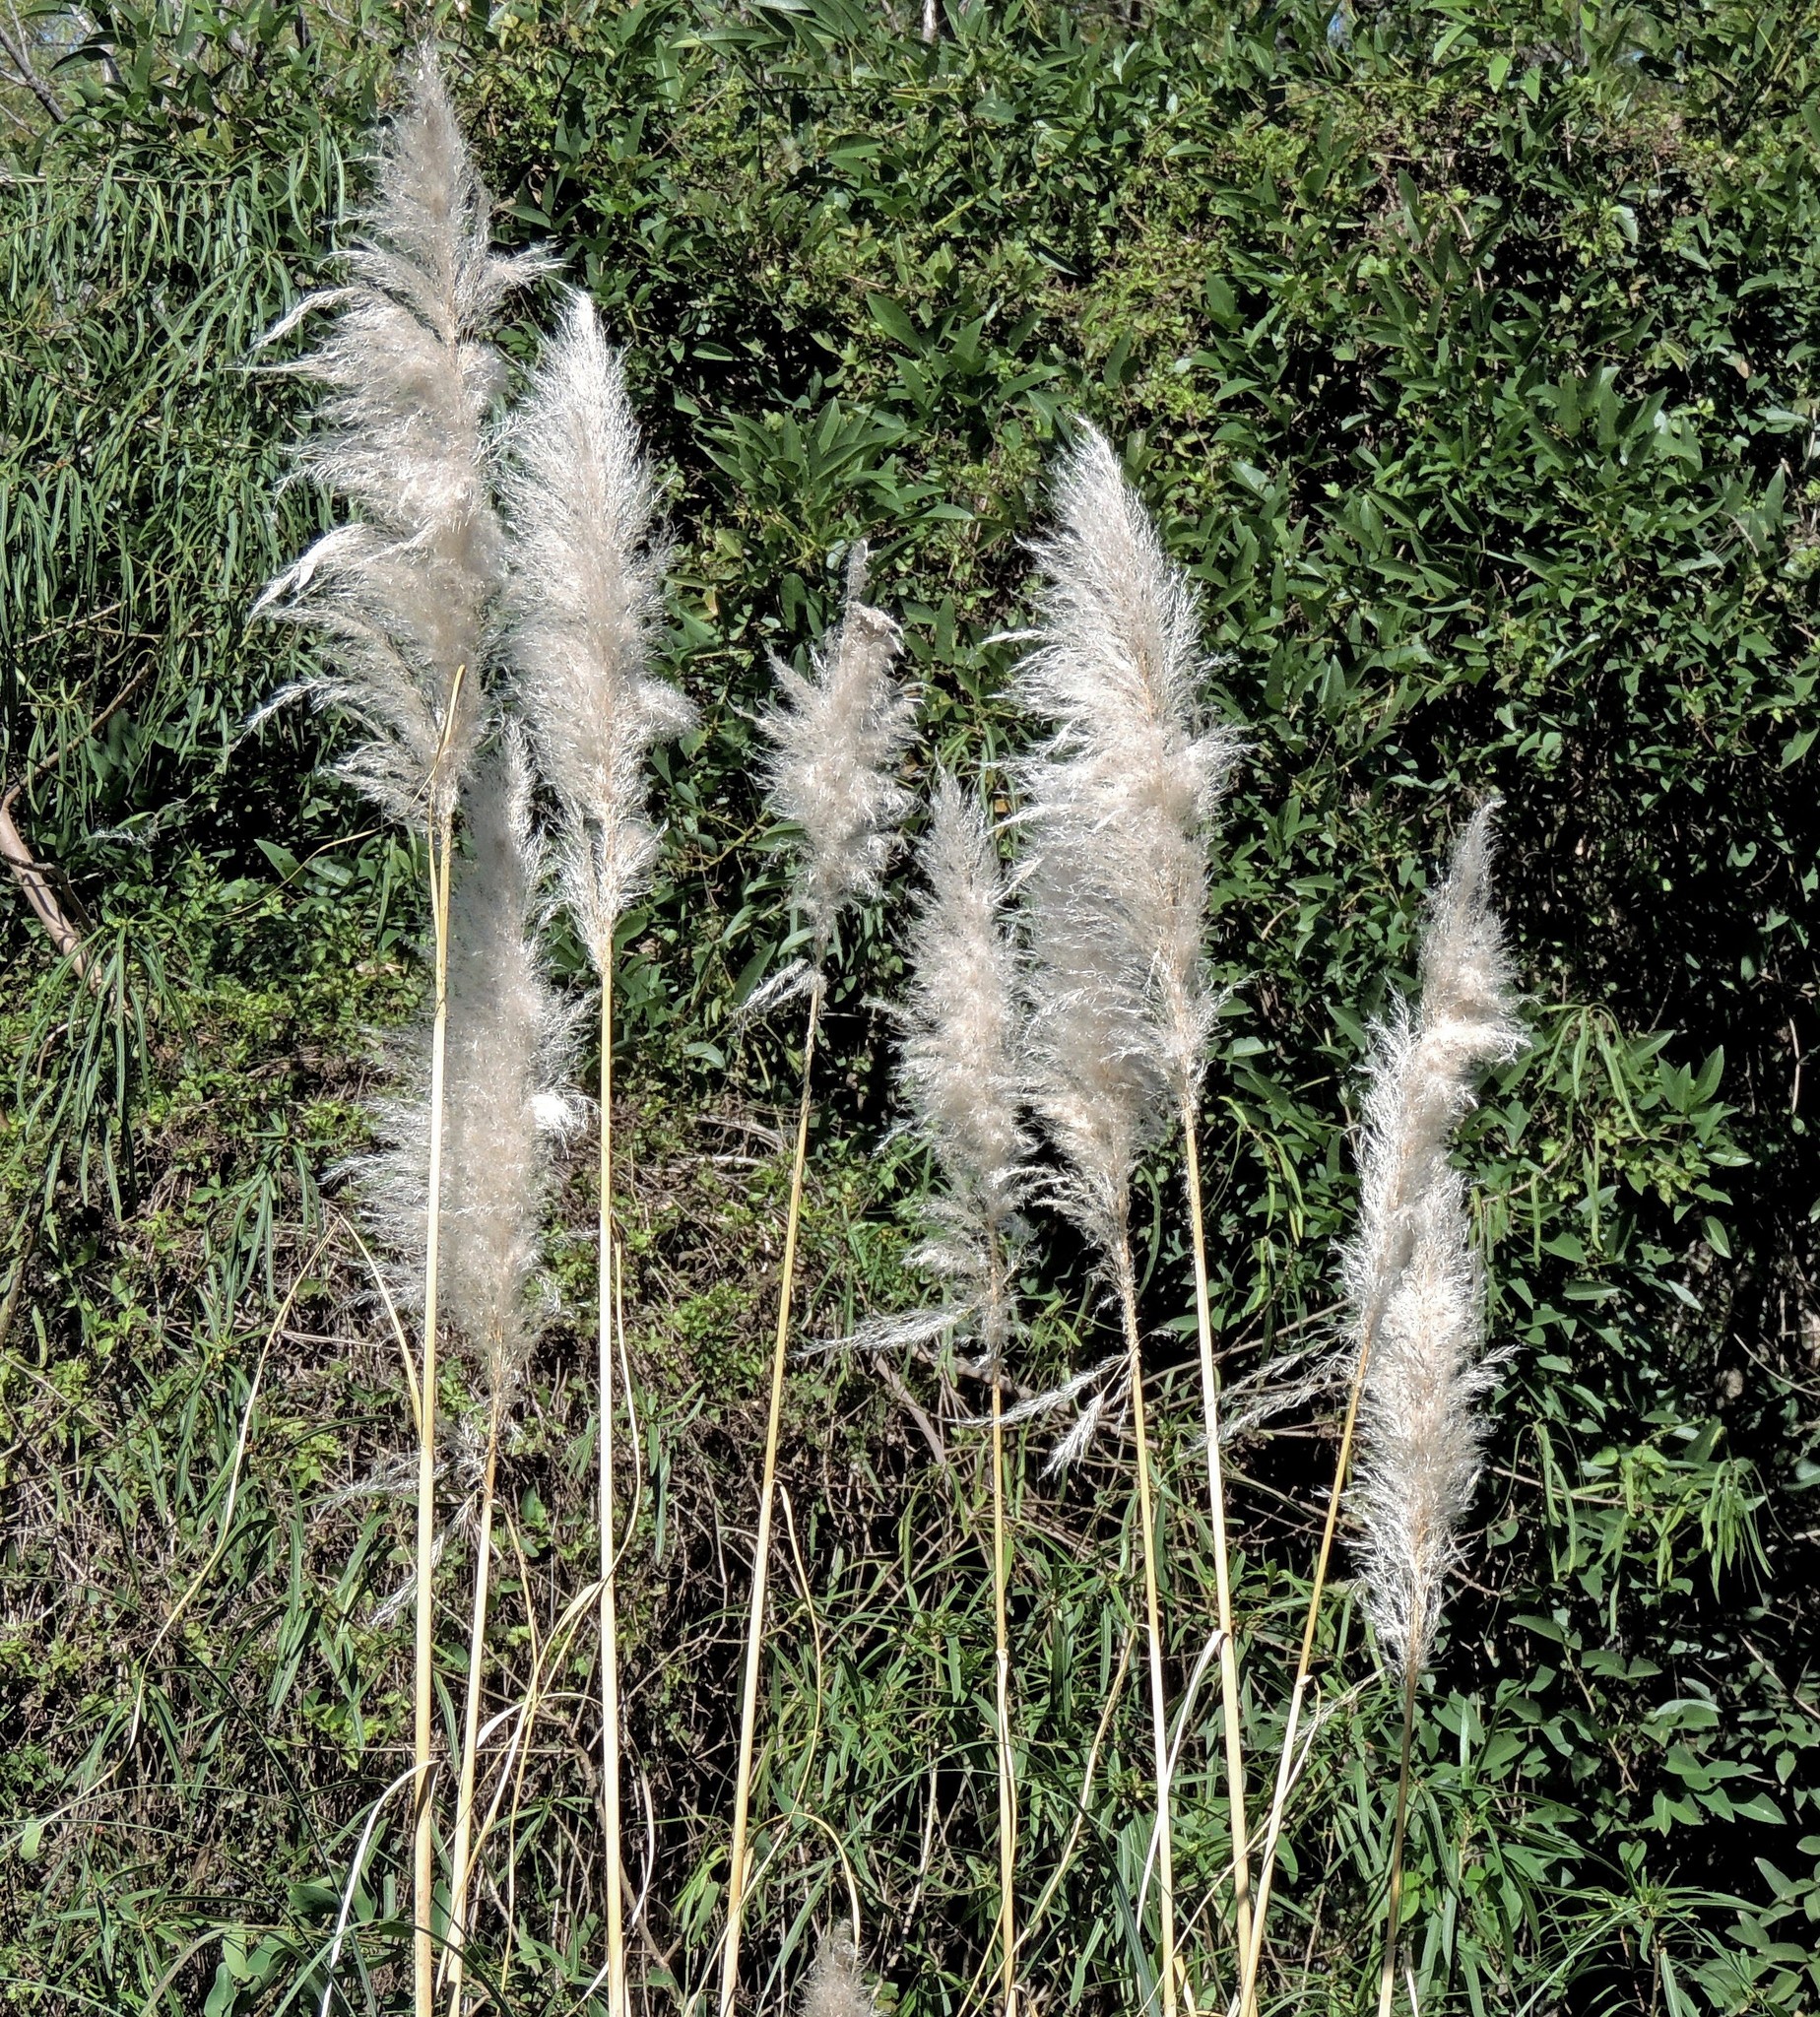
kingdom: Plantae
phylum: Tracheophyta
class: Liliopsida
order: Poales
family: Poaceae
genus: Cortaderia
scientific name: Cortaderia selloana
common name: Uruguayan pampas grass
